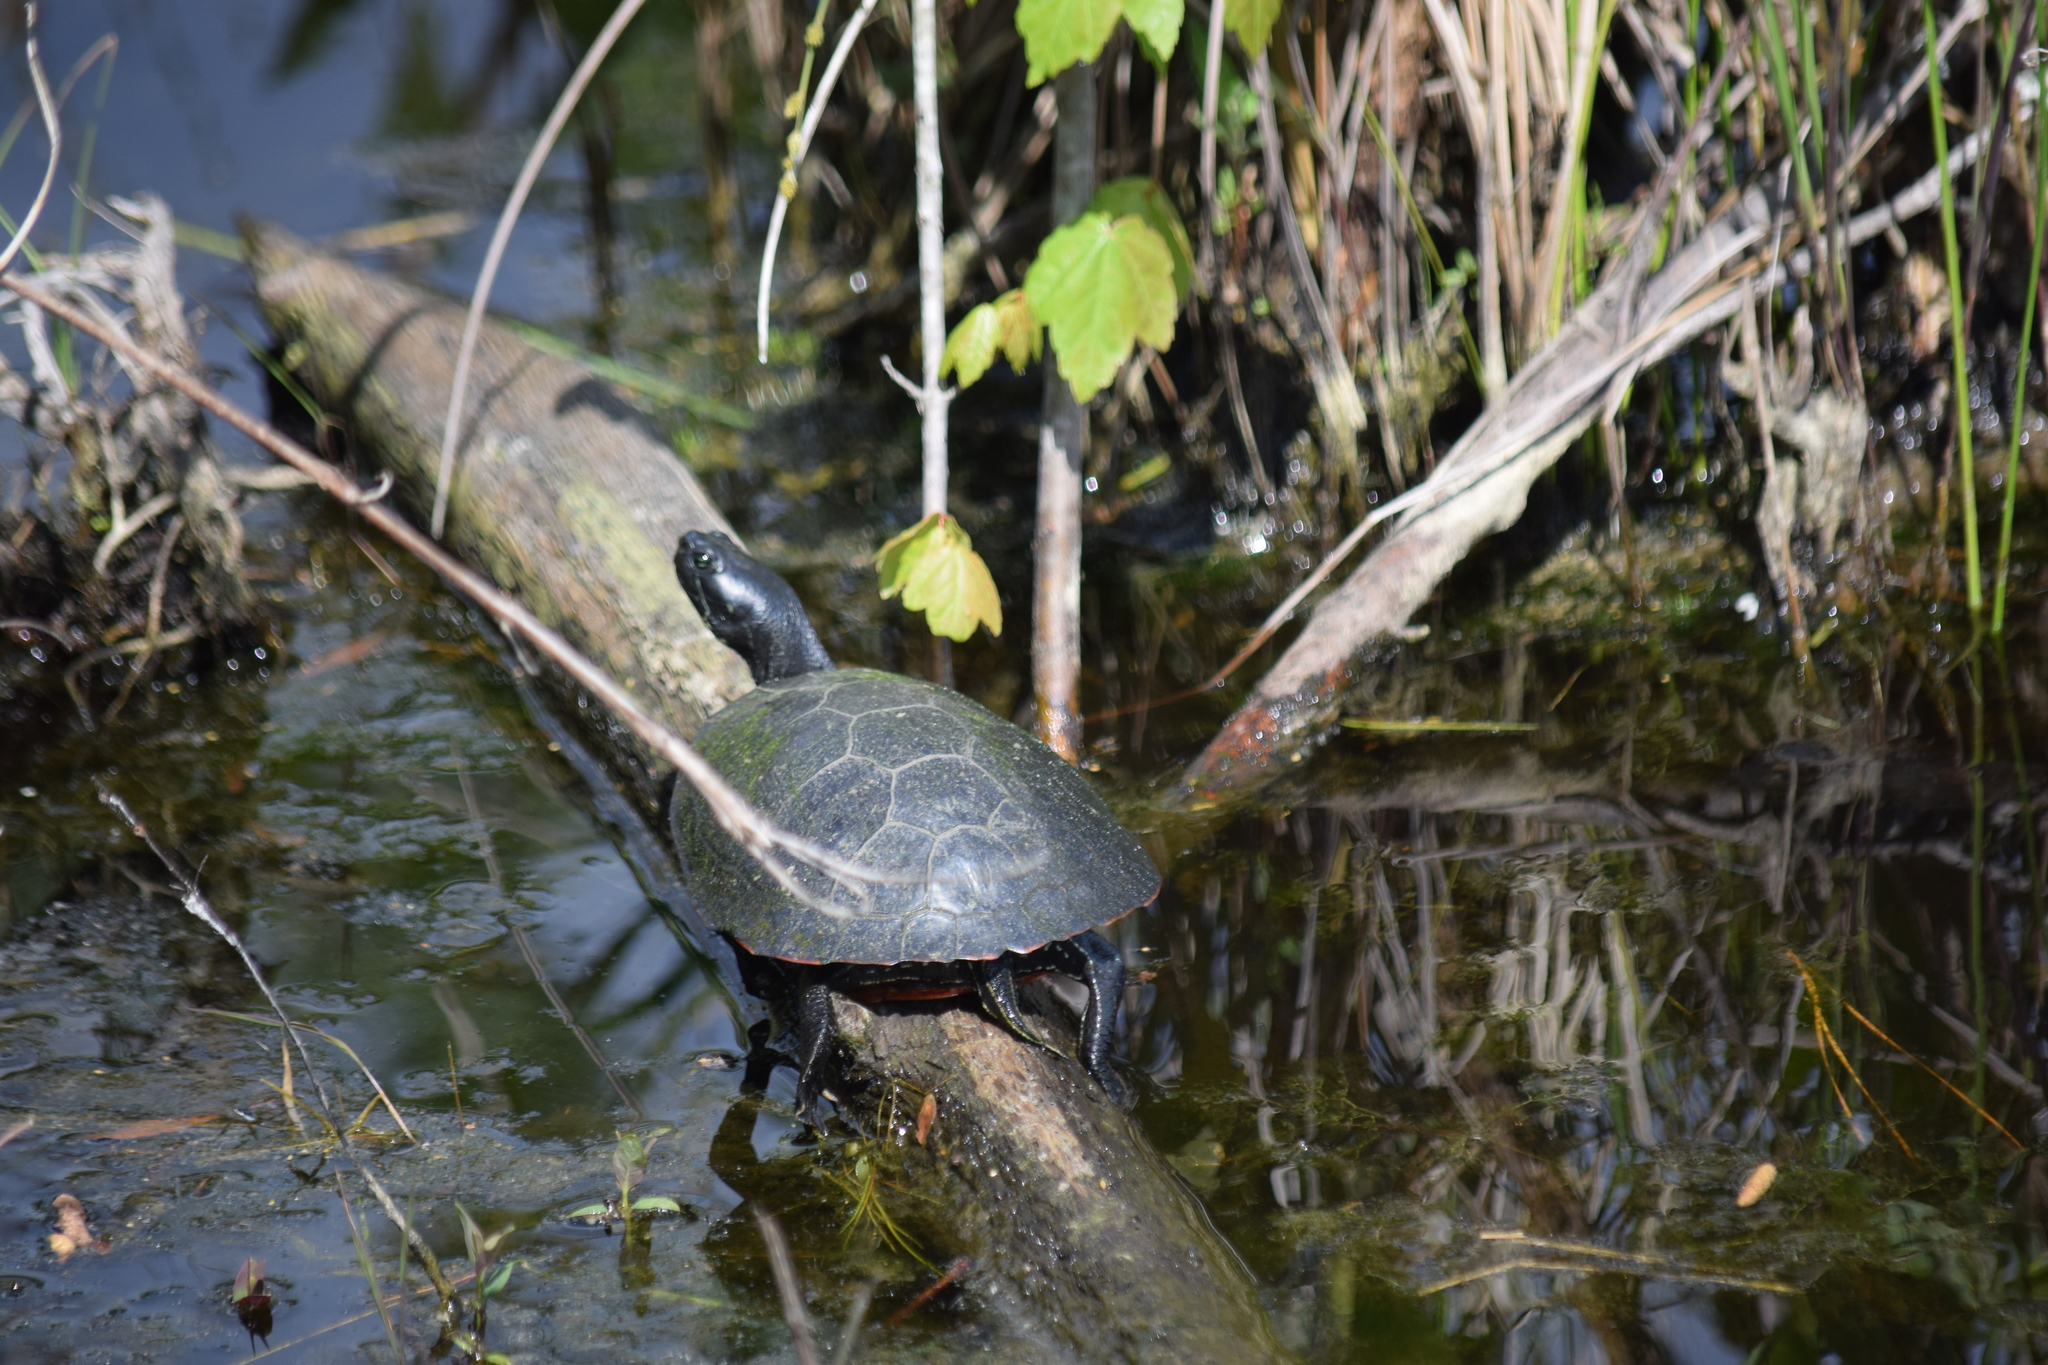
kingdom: Animalia
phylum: Chordata
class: Testudines
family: Emydidae
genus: Pseudemys
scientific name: Pseudemys rubriventris
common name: American red-bellied turtle
